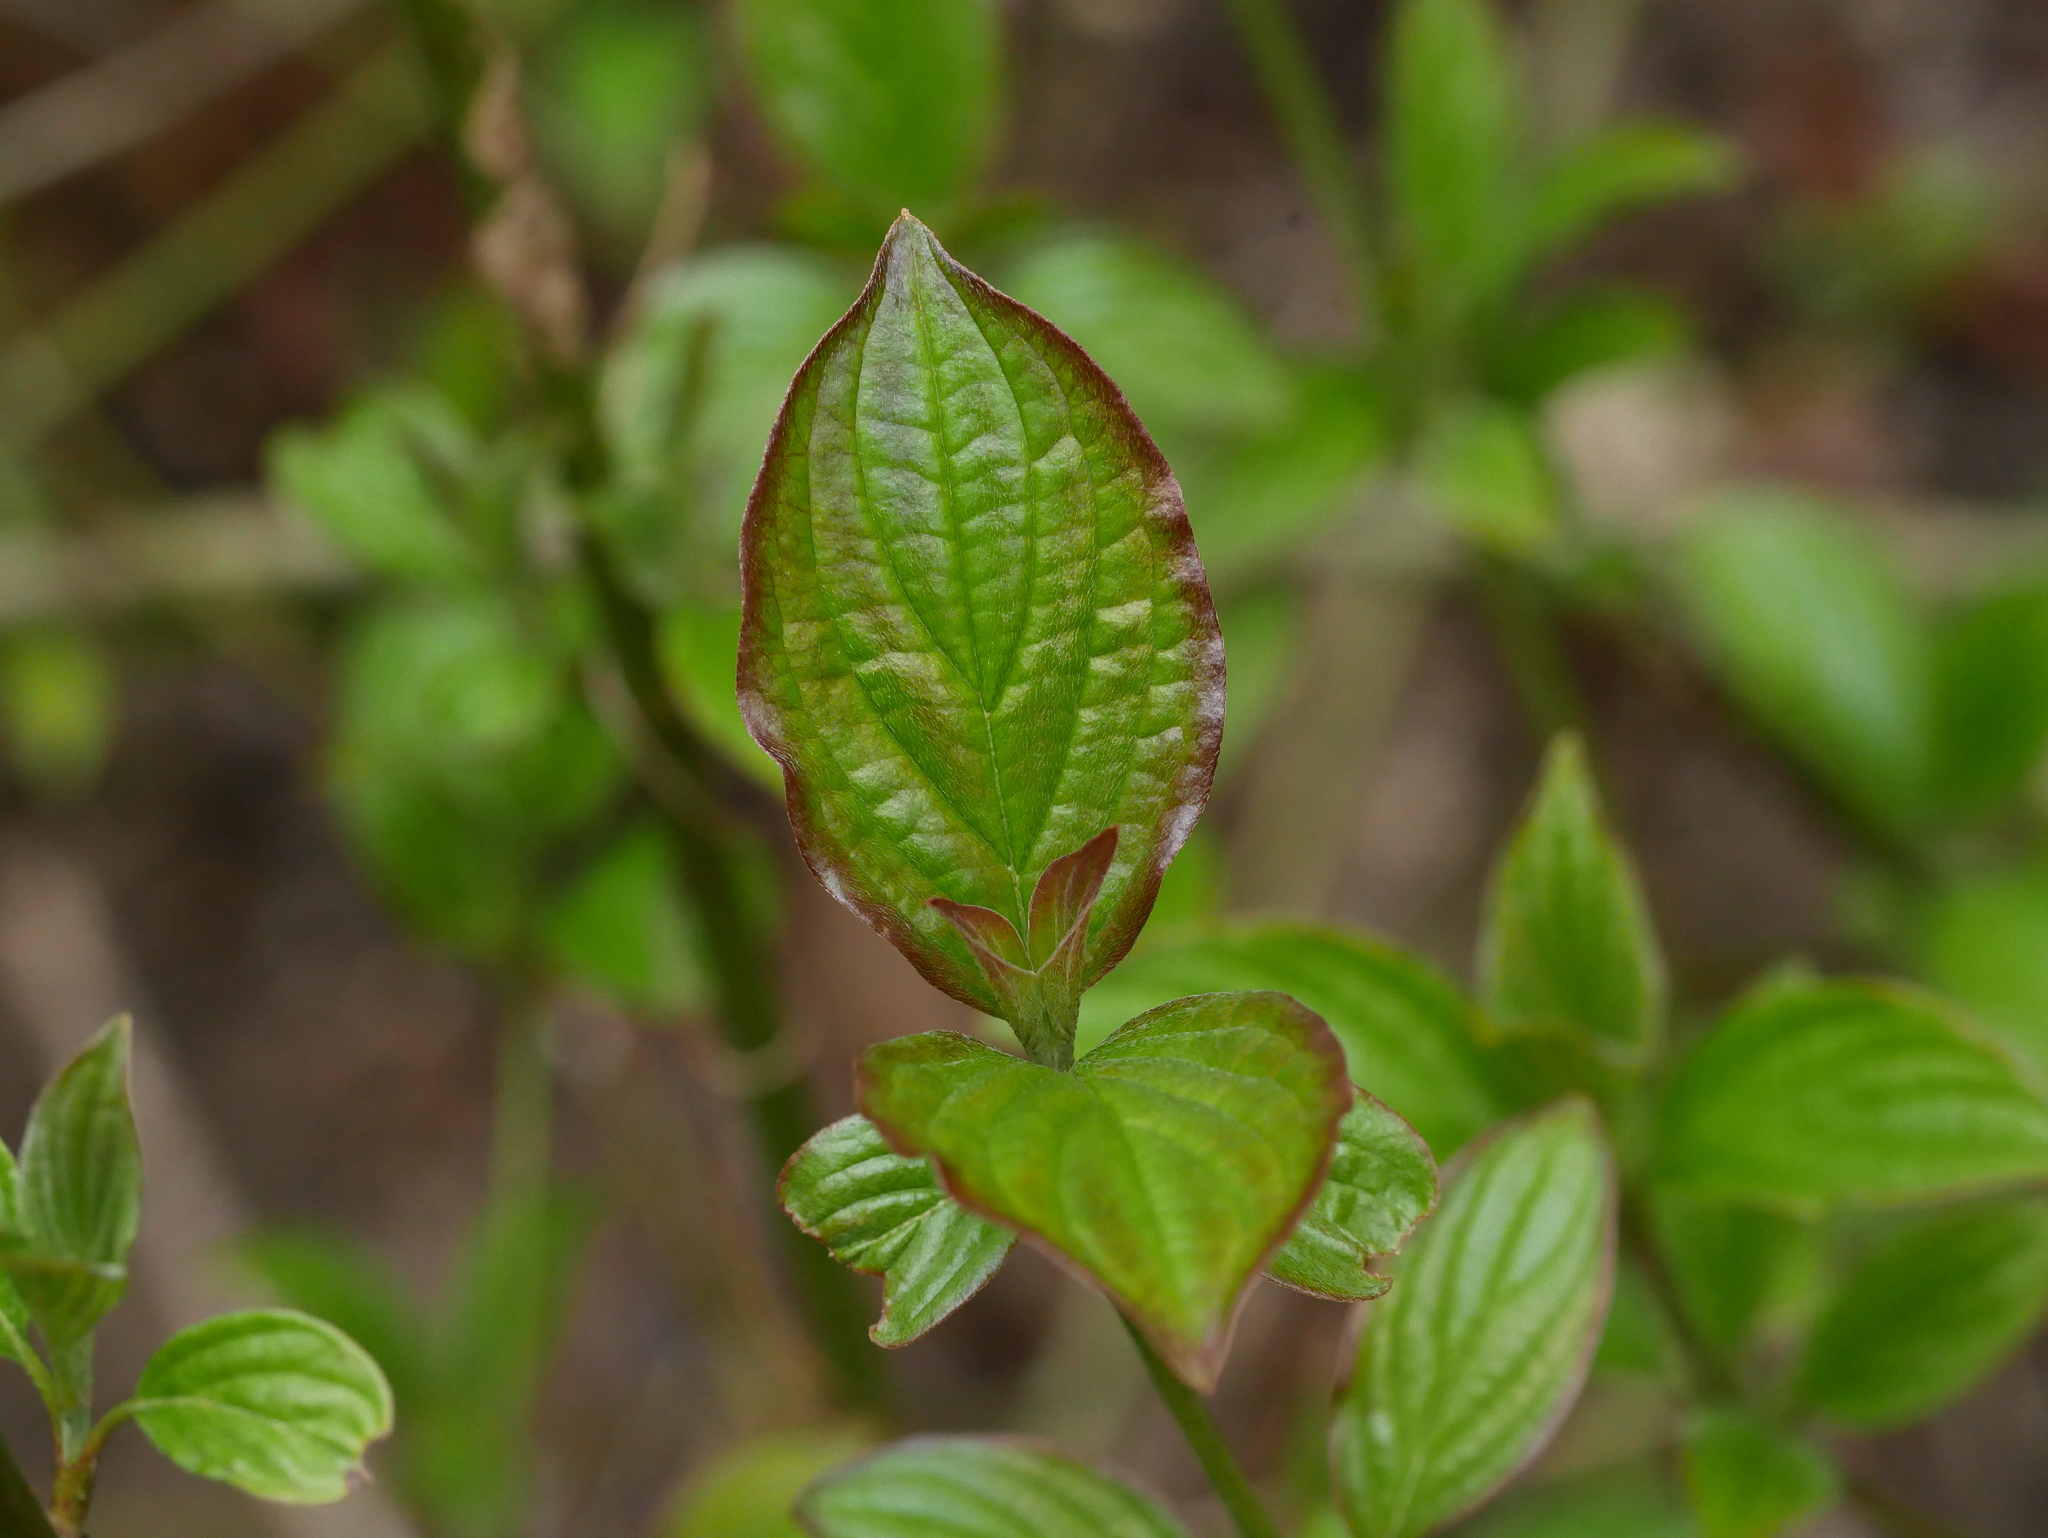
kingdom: Plantae
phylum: Tracheophyta
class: Magnoliopsida
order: Cornales
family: Cornaceae
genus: Cornus
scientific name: Cornus sanguinea
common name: Dogwood
